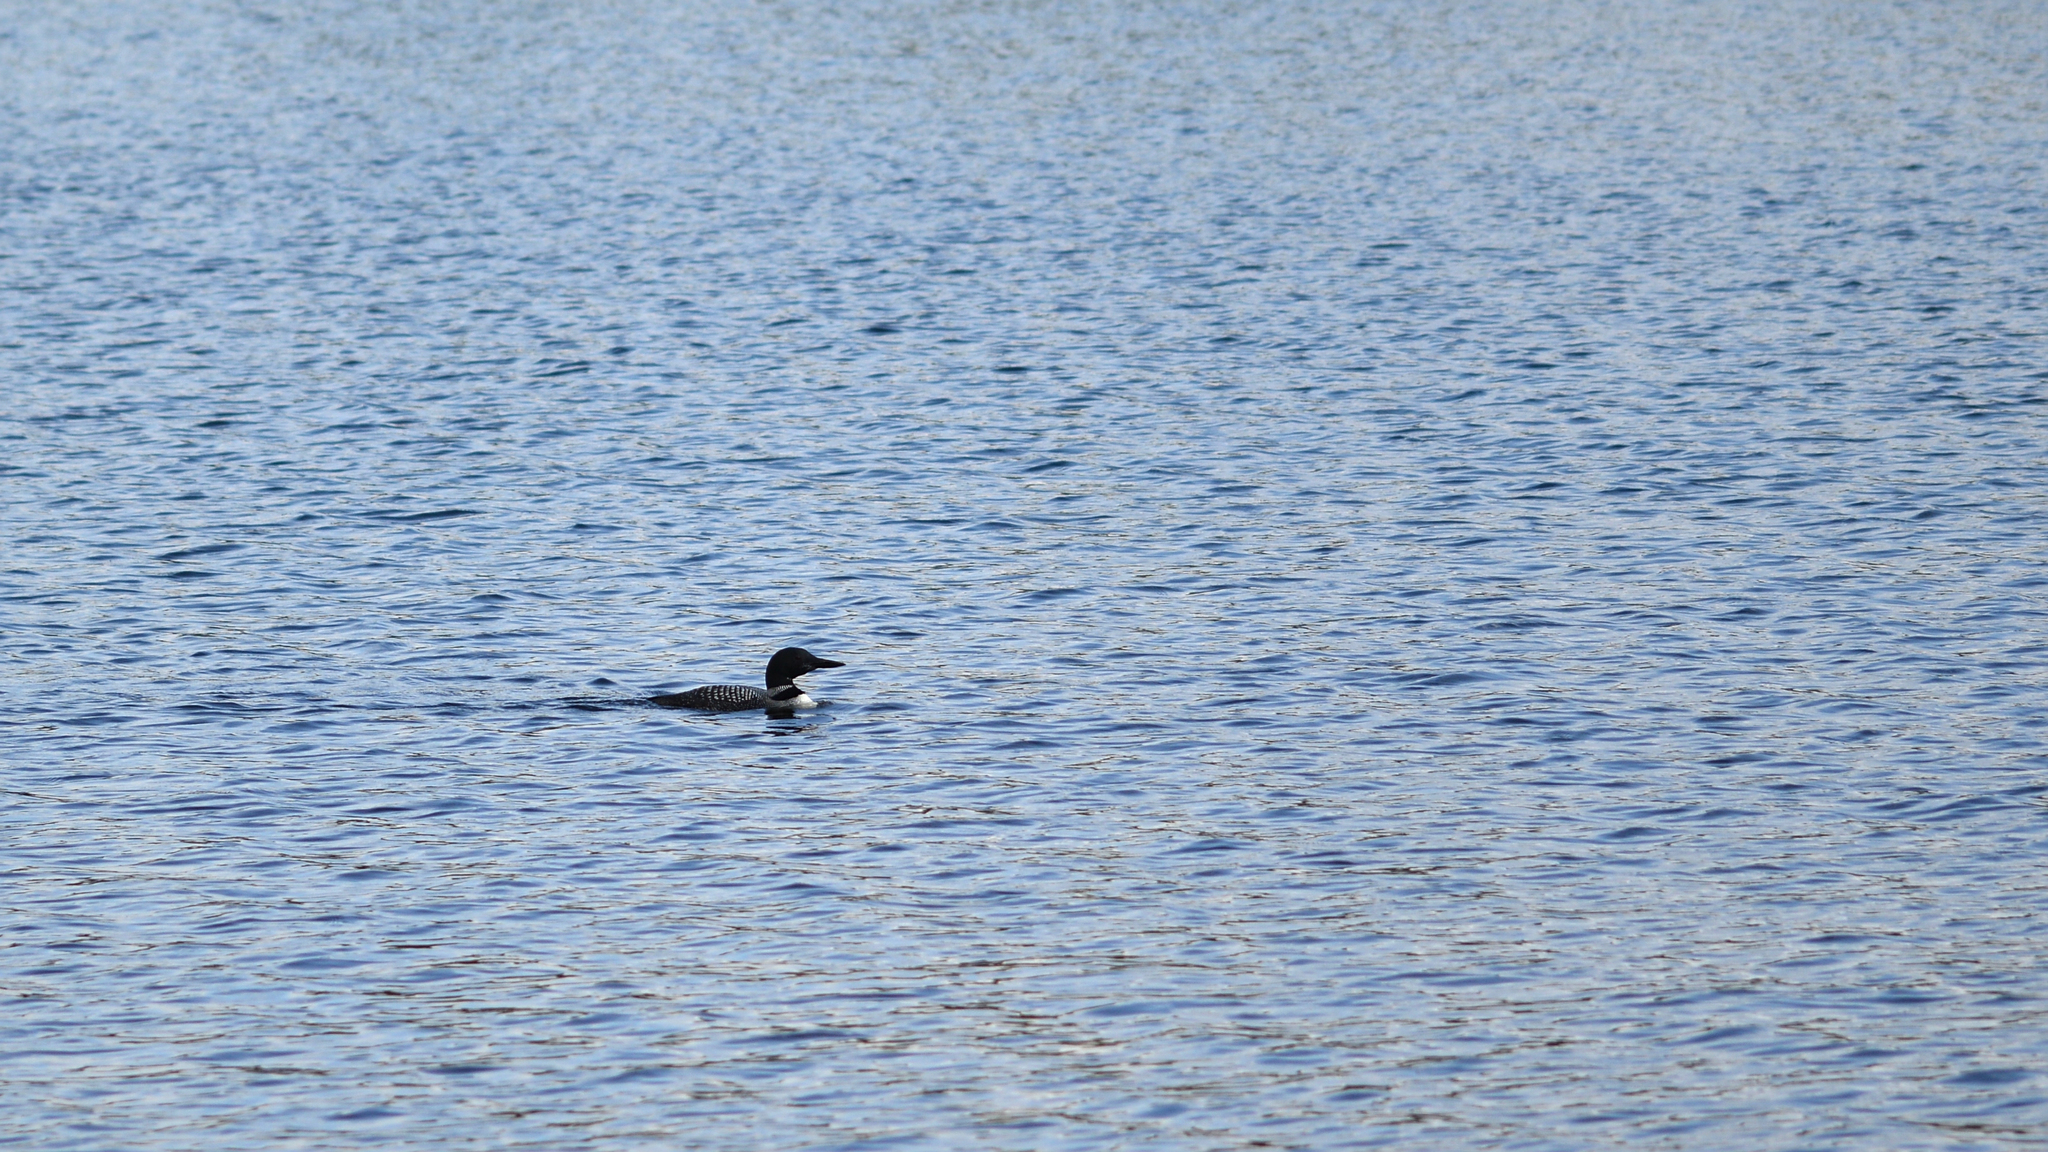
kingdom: Animalia
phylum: Chordata
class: Aves
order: Gaviiformes
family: Gaviidae
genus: Gavia
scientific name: Gavia immer
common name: Common loon
